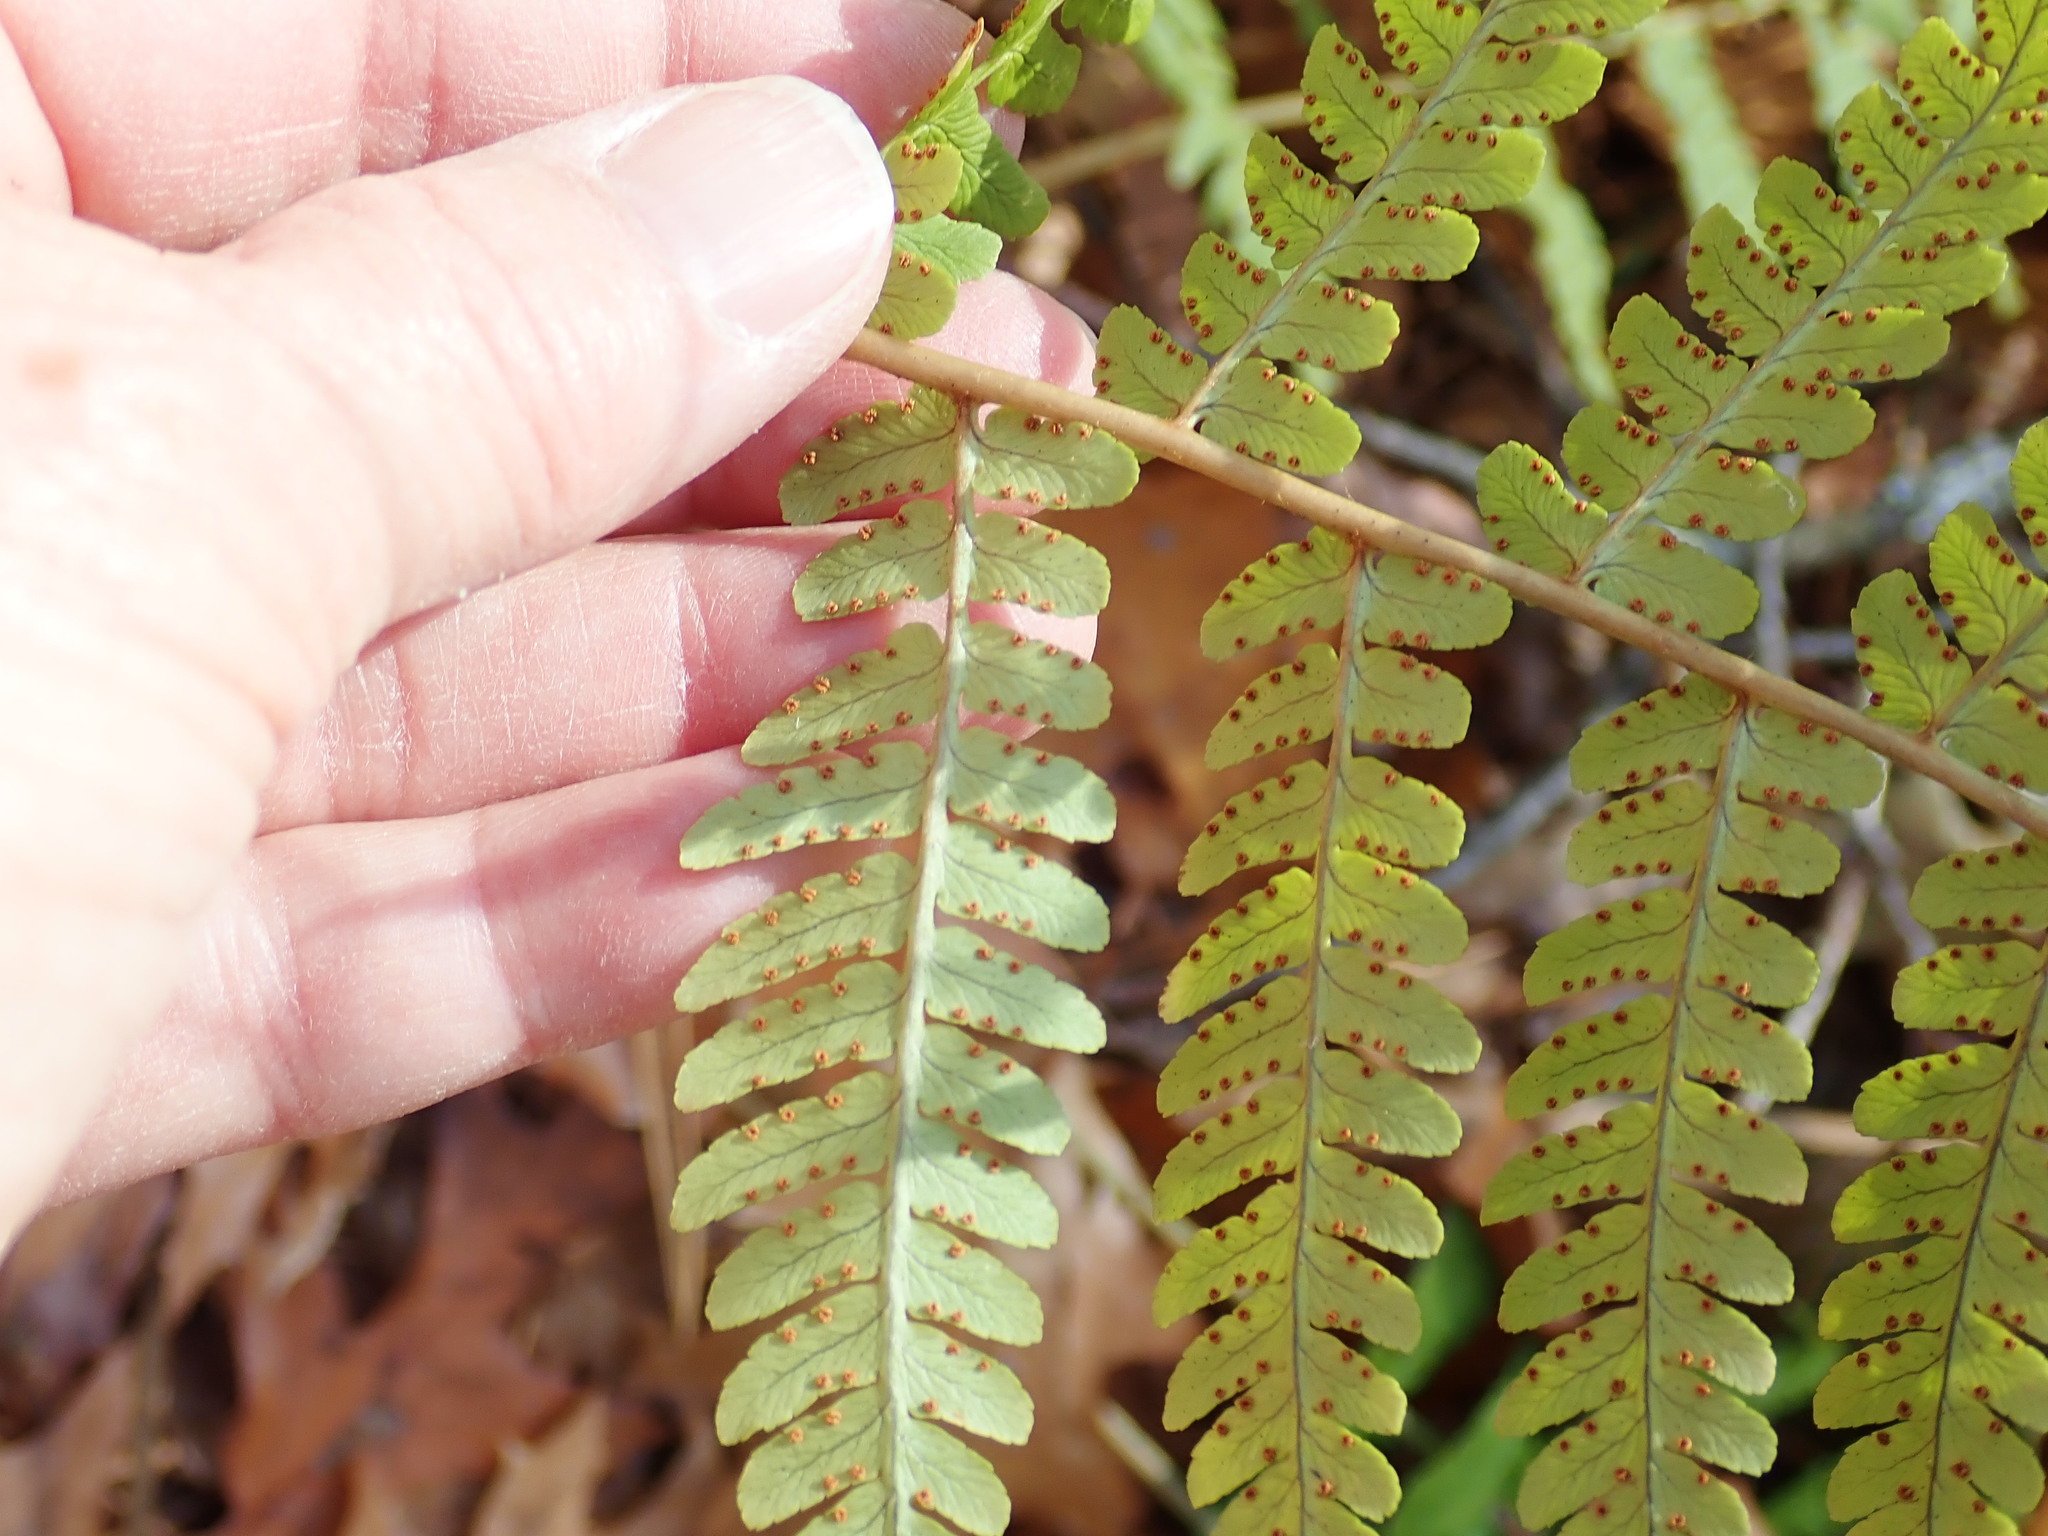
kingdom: Plantae
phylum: Tracheophyta
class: Polypodiopsida
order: Polypodiales
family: Dryopteridaceae
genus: Dryopteris
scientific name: Dryopteris marginalis
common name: Marginal wood fern
